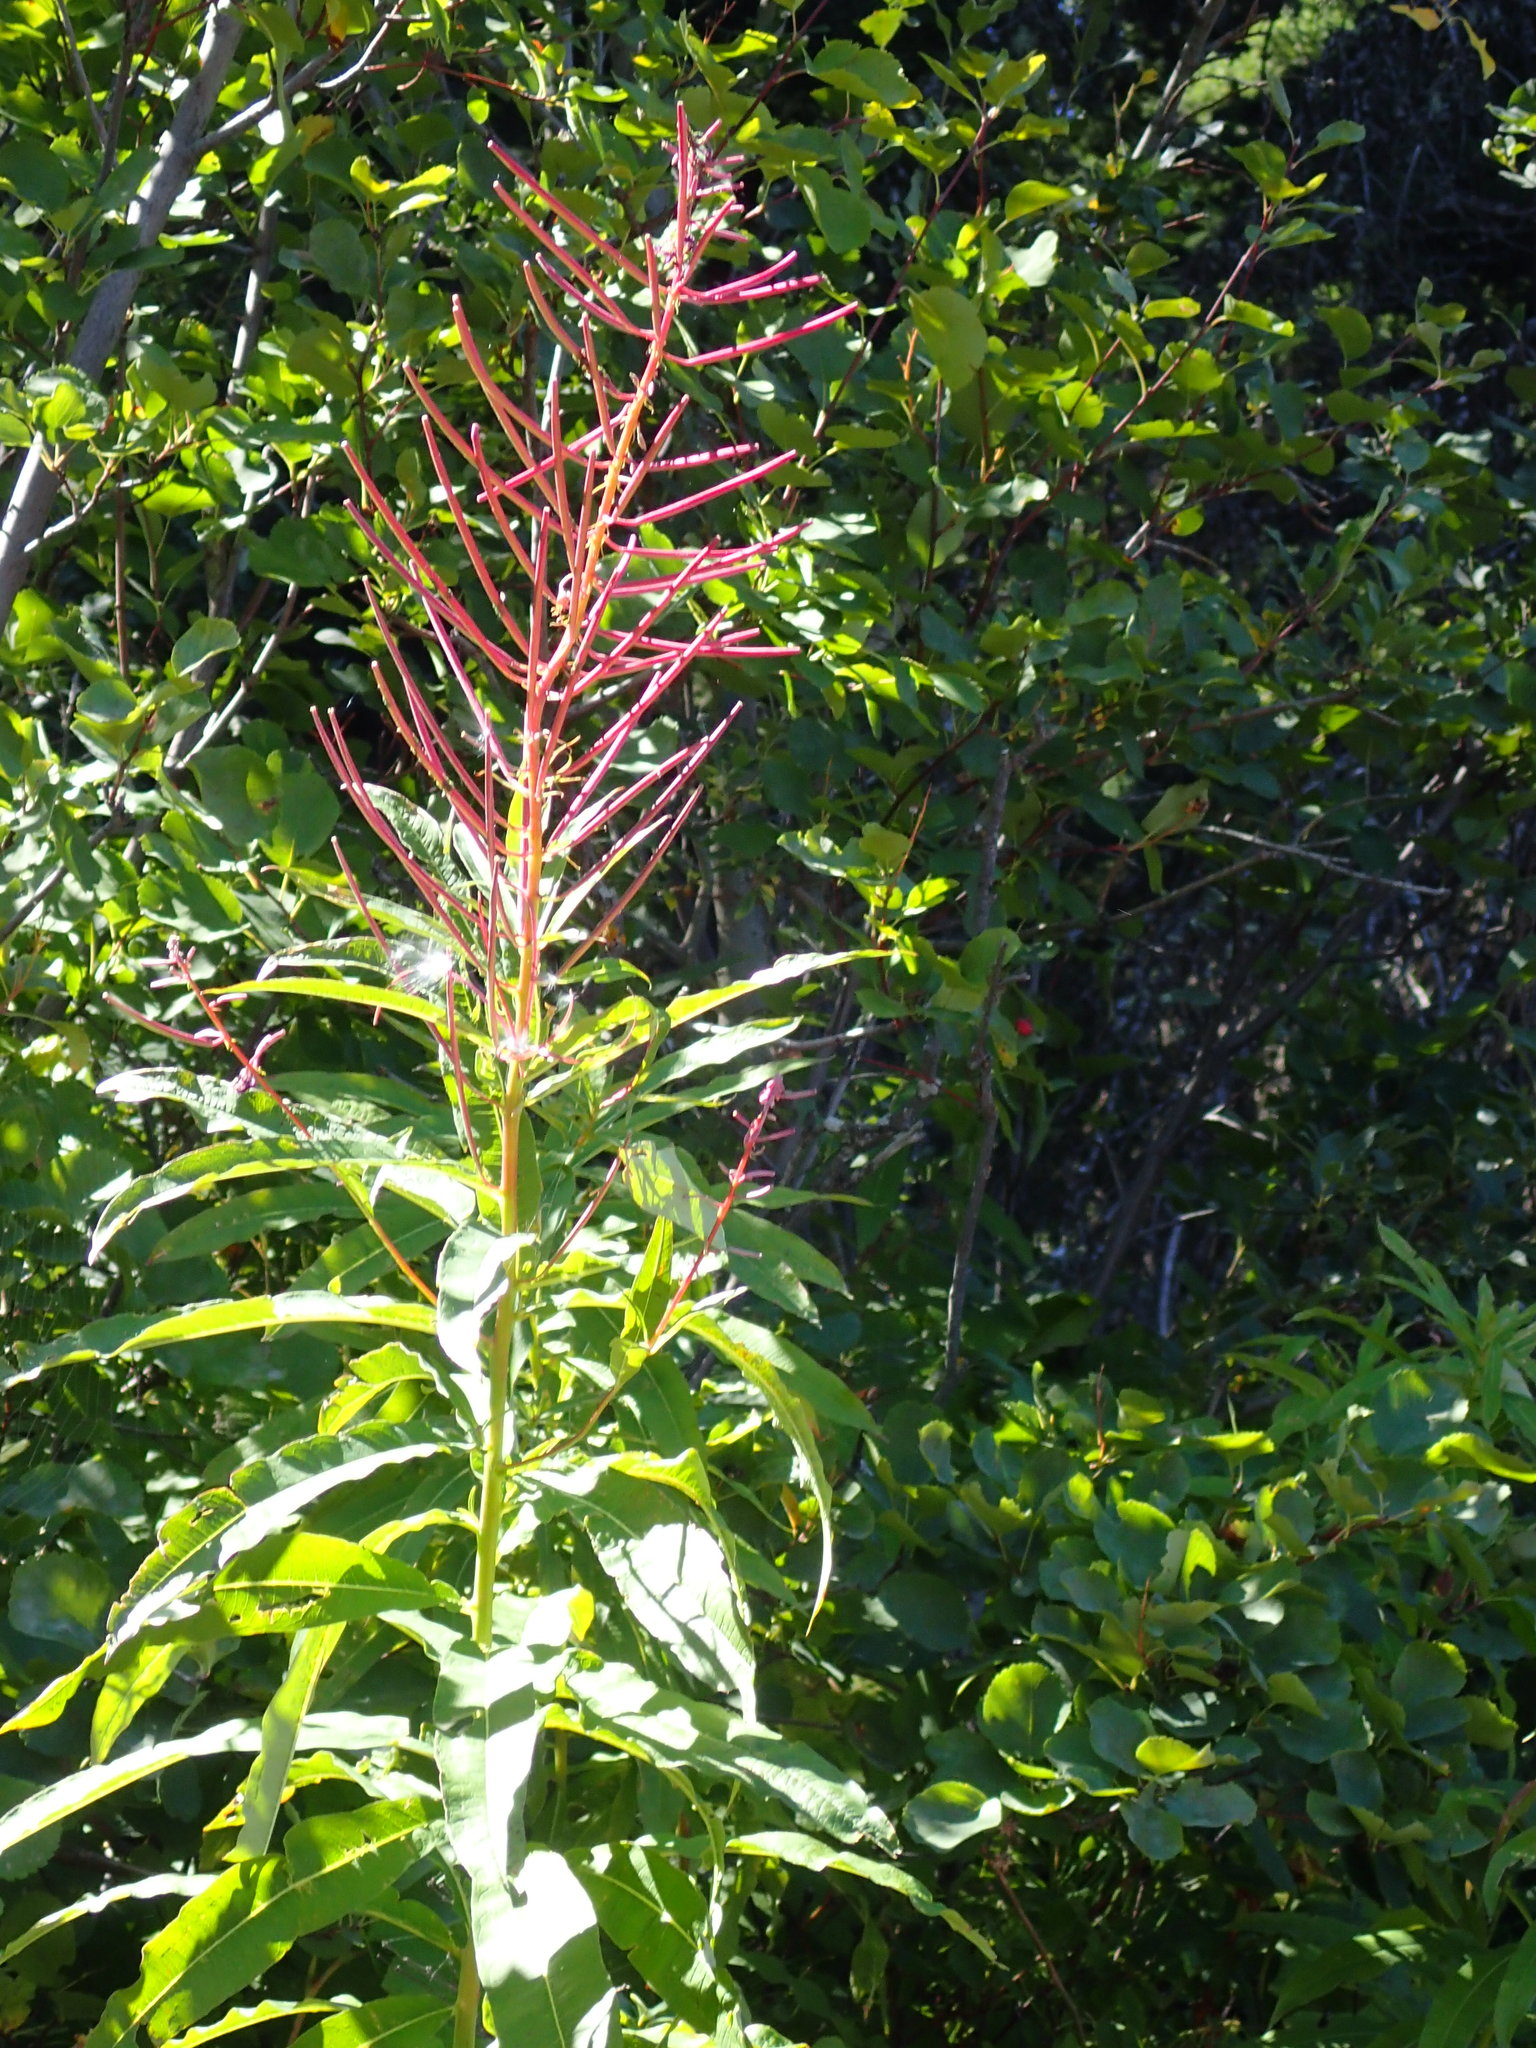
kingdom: Plantae
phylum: Tracheophyta
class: Magnoliopsida
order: Myrtales
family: Onagraceae
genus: Chamaenerion
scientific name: Chamaenerion angustifolium
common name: Fireweed
